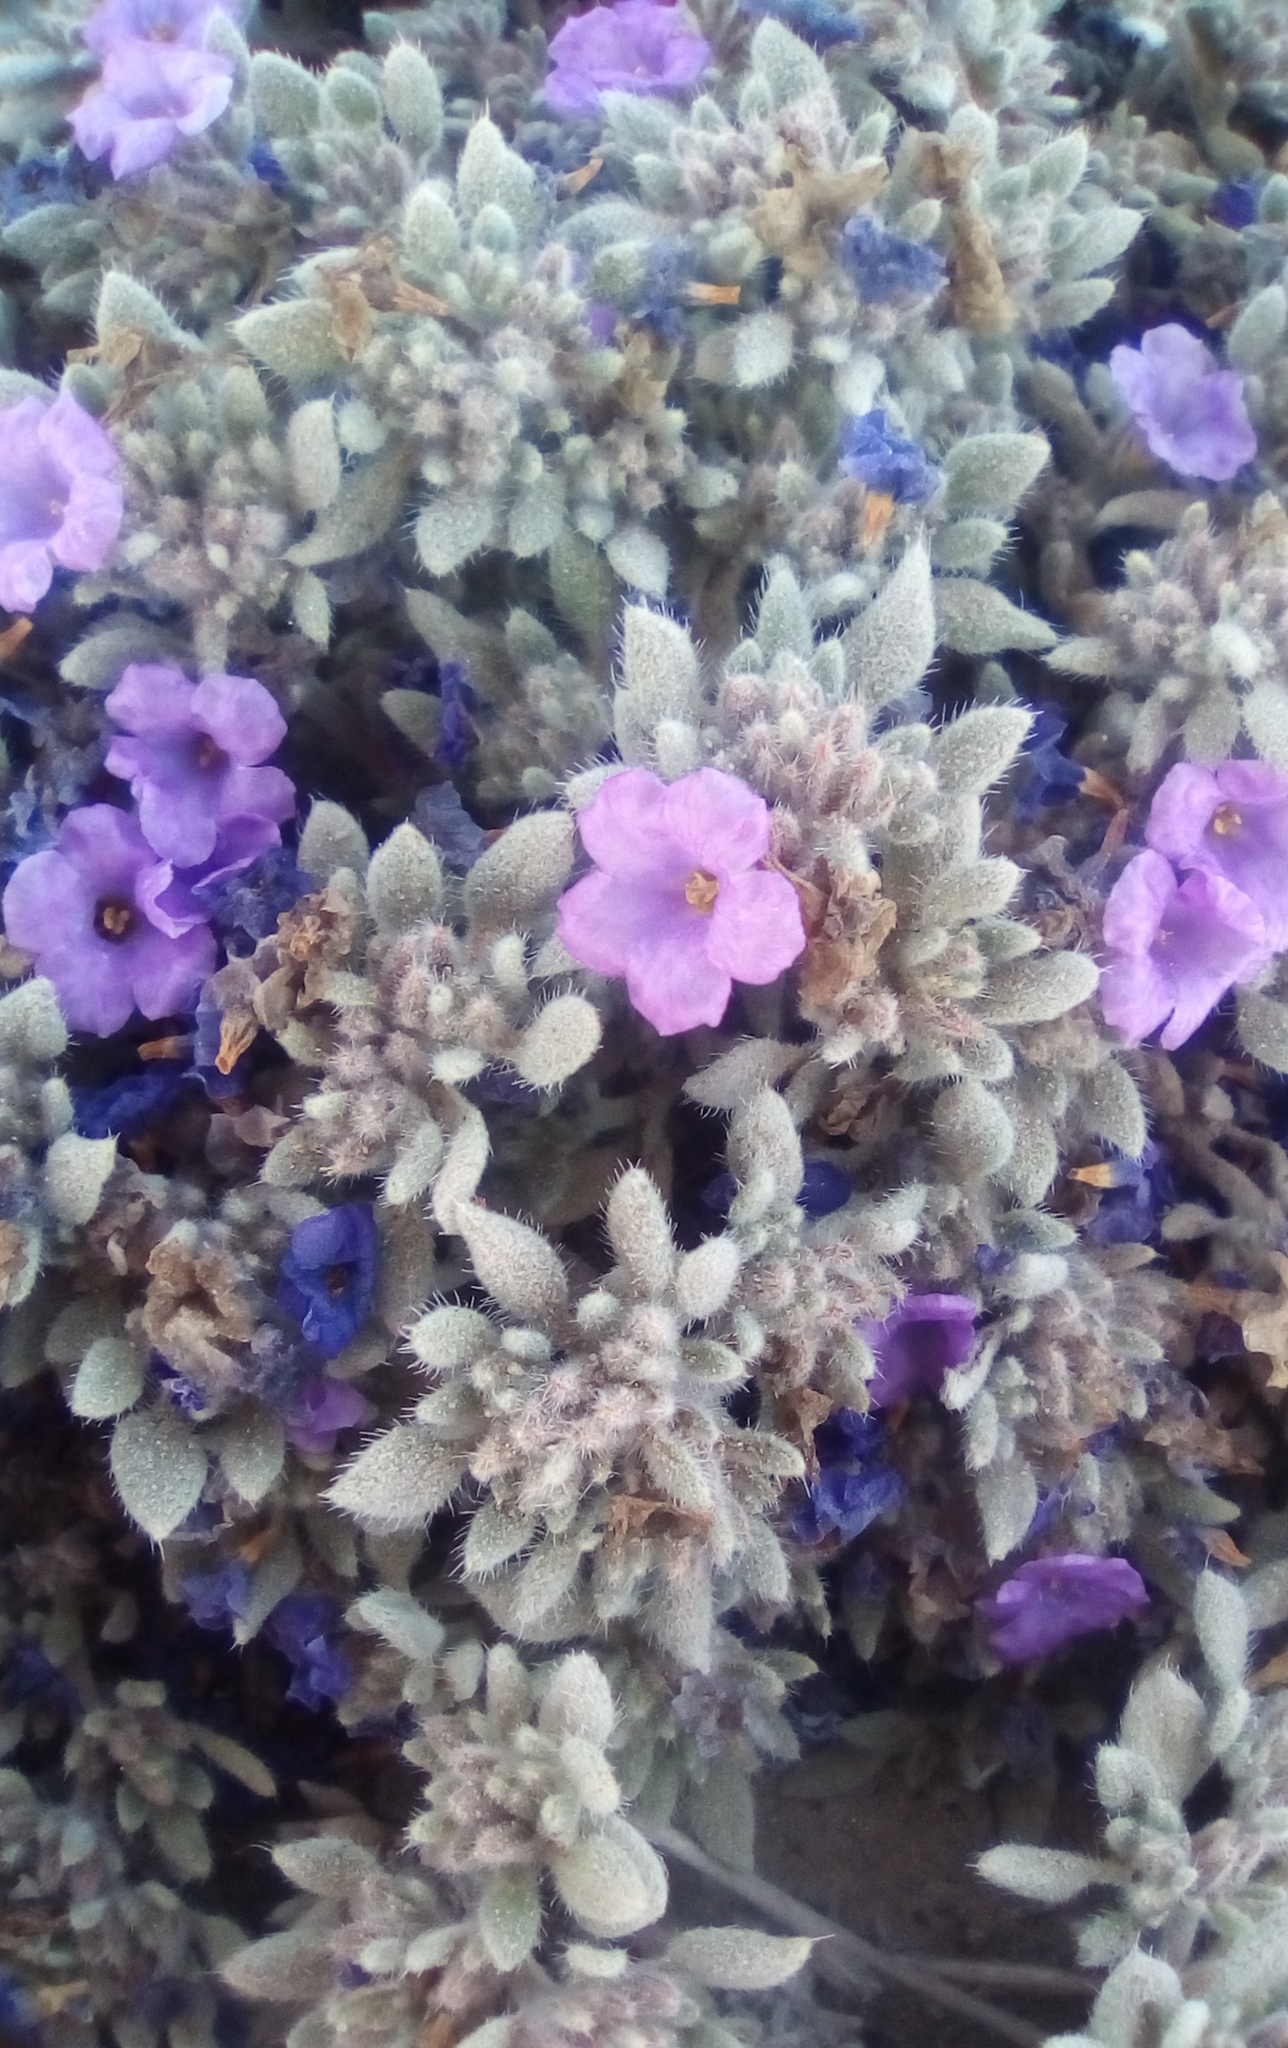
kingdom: Plantae
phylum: Tracheophyta
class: Magnoliopsida
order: Boraginales
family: Ehretiaceae
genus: Tiquilia
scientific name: Tiquilia canescens
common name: Hairy tiquilia
